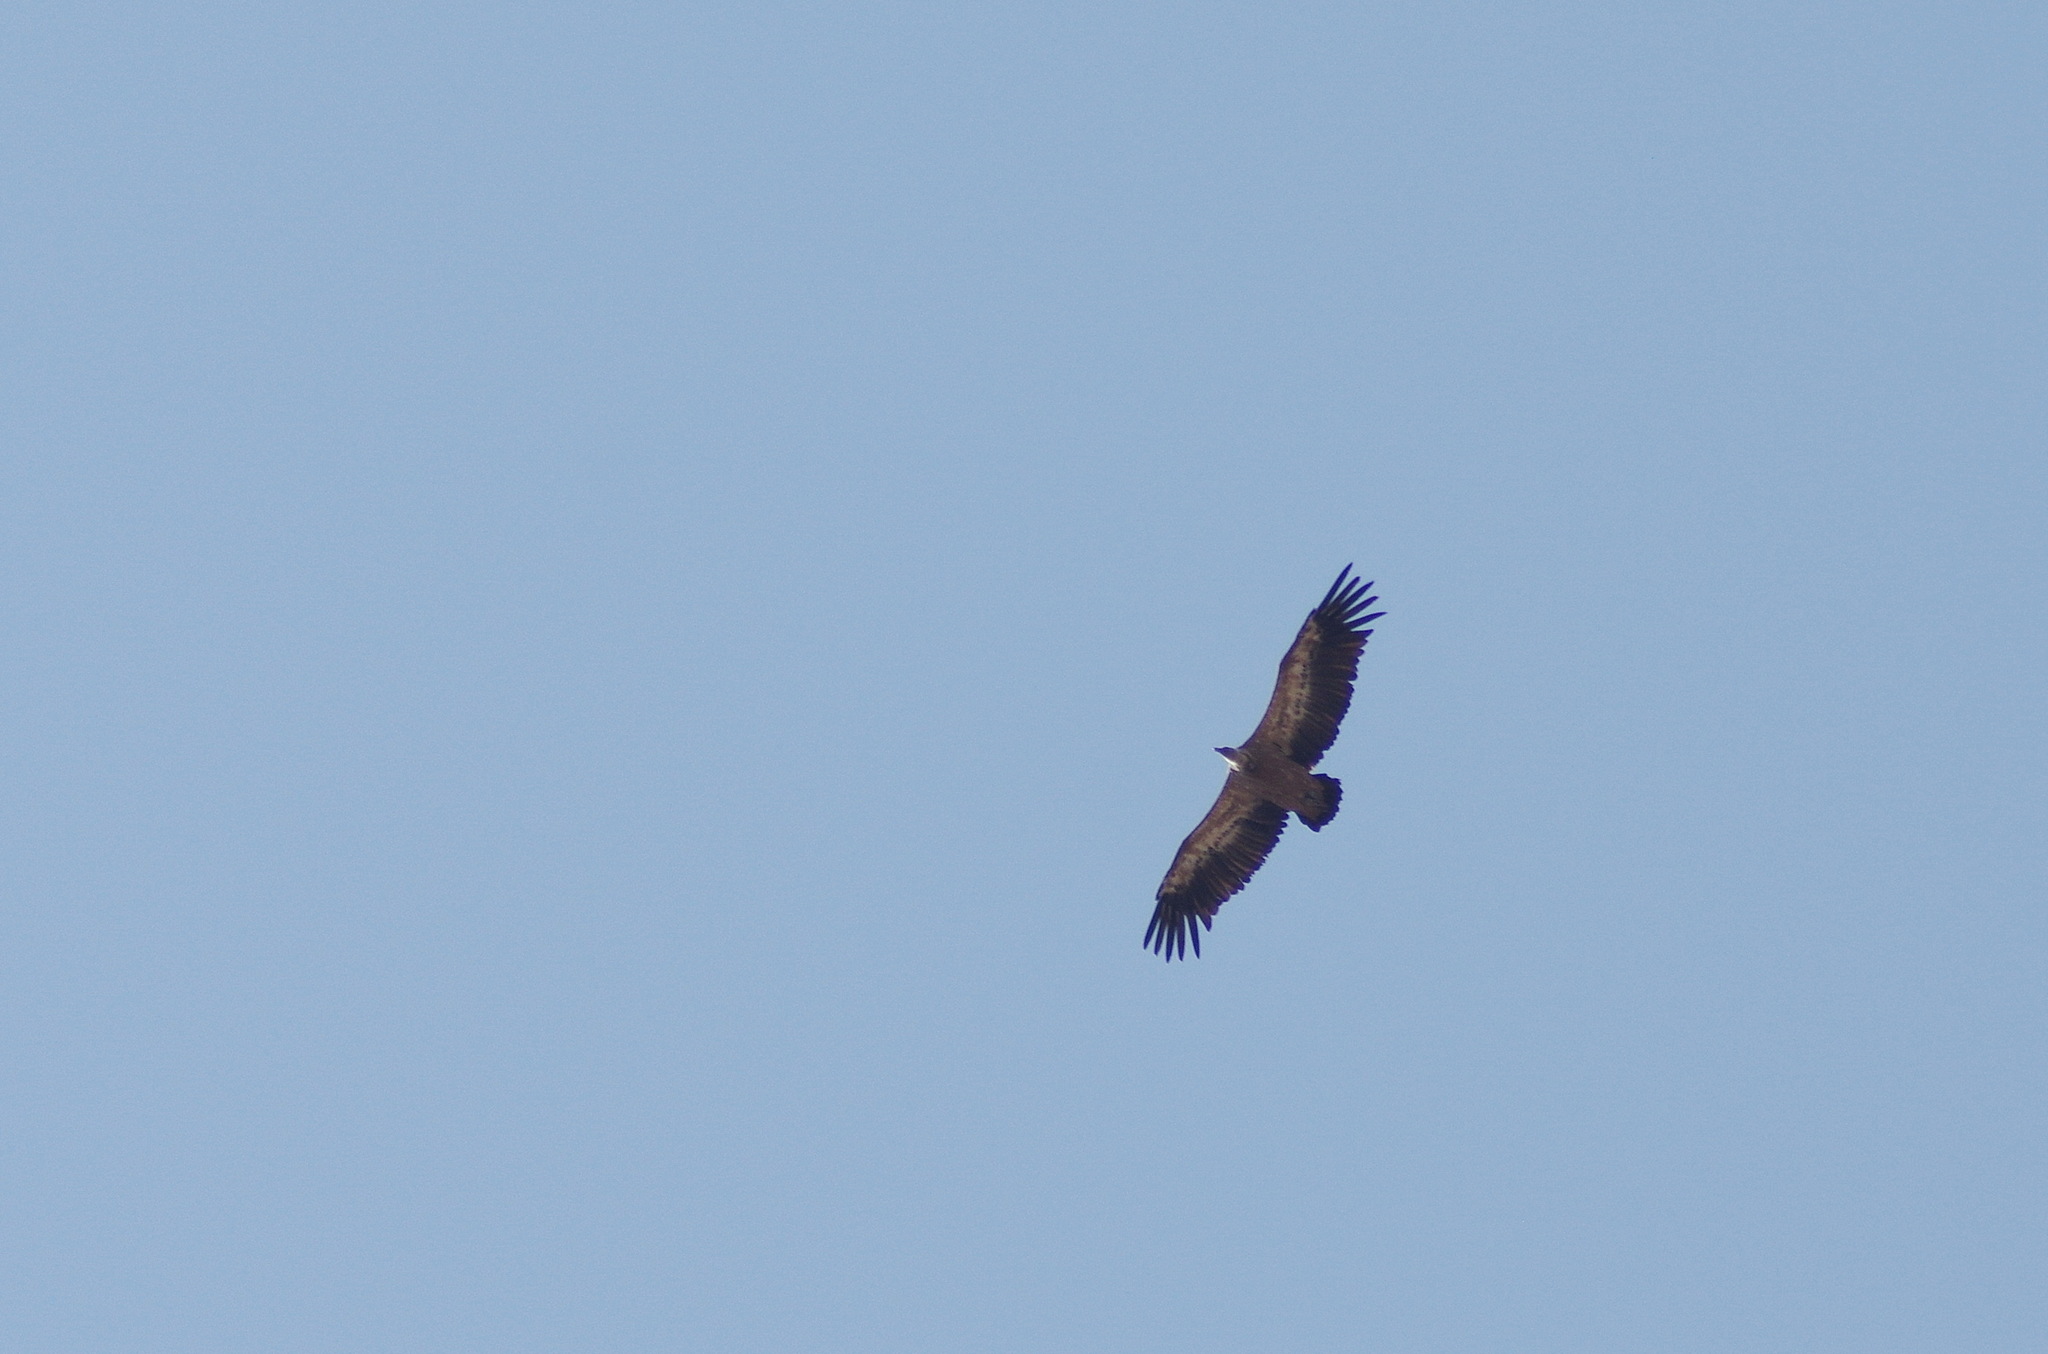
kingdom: Animalia
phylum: Chordata
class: Aves
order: Accipitriformes
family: Accipitridae
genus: Gyps
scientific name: Gyps fulvus
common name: Griffon vulture
